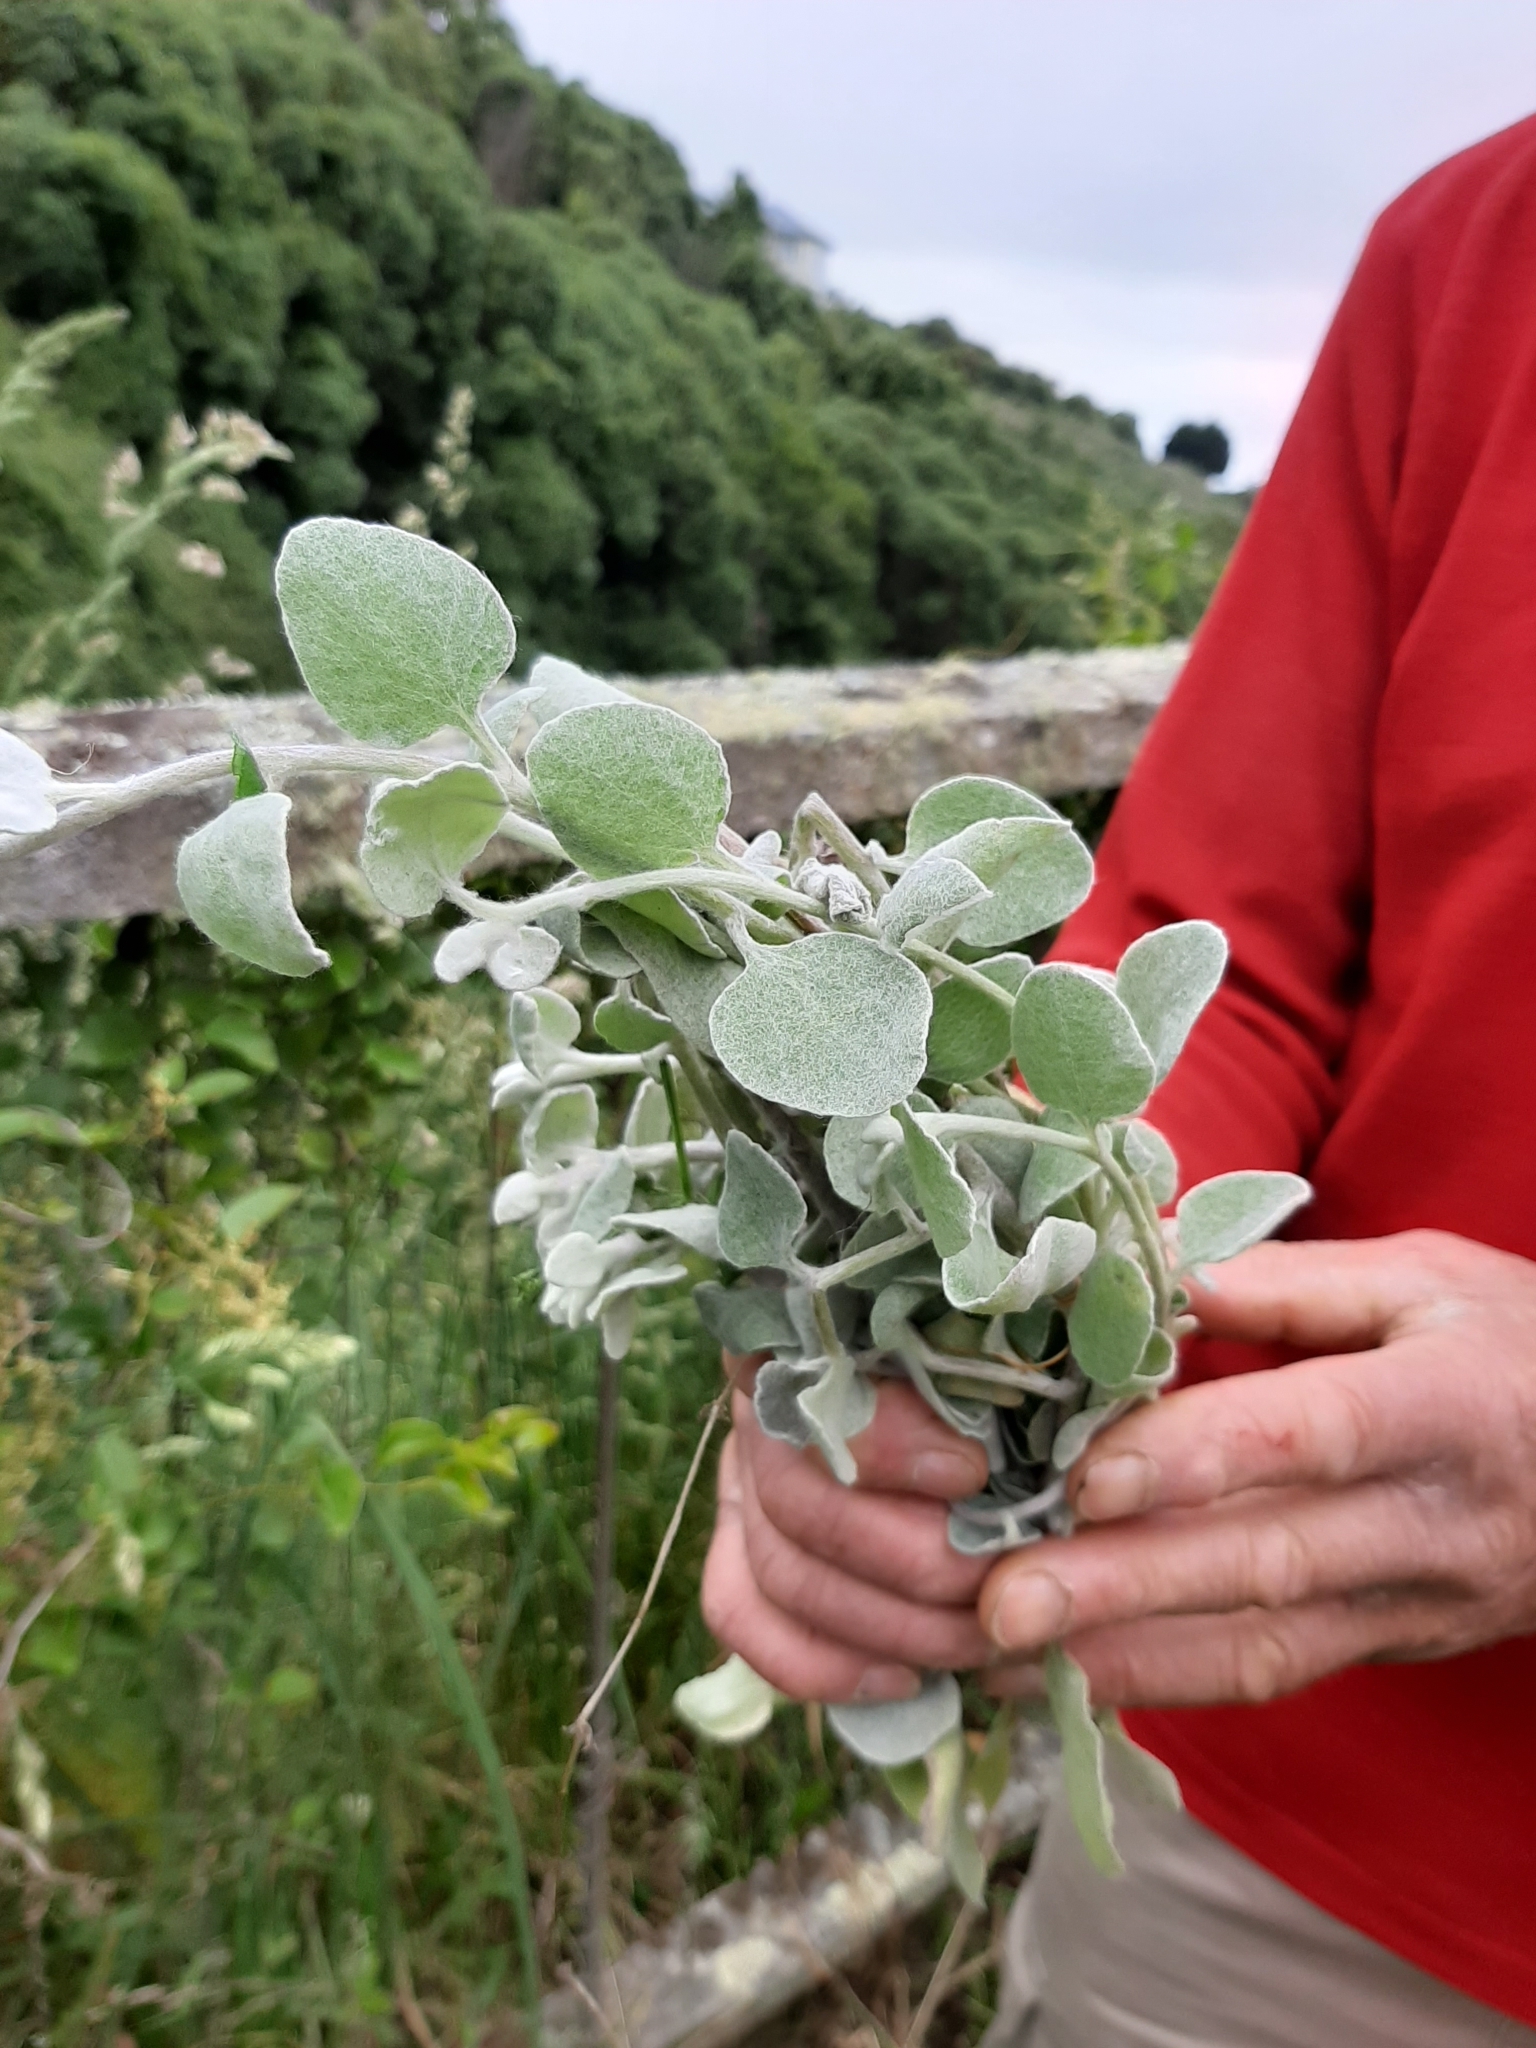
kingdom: Plantae
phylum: Tracheophyta
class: Magnoliopsida
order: Asterales
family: Asteraceae
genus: Helichrysum
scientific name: Helichrysum petiolare
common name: Licorice-plant
